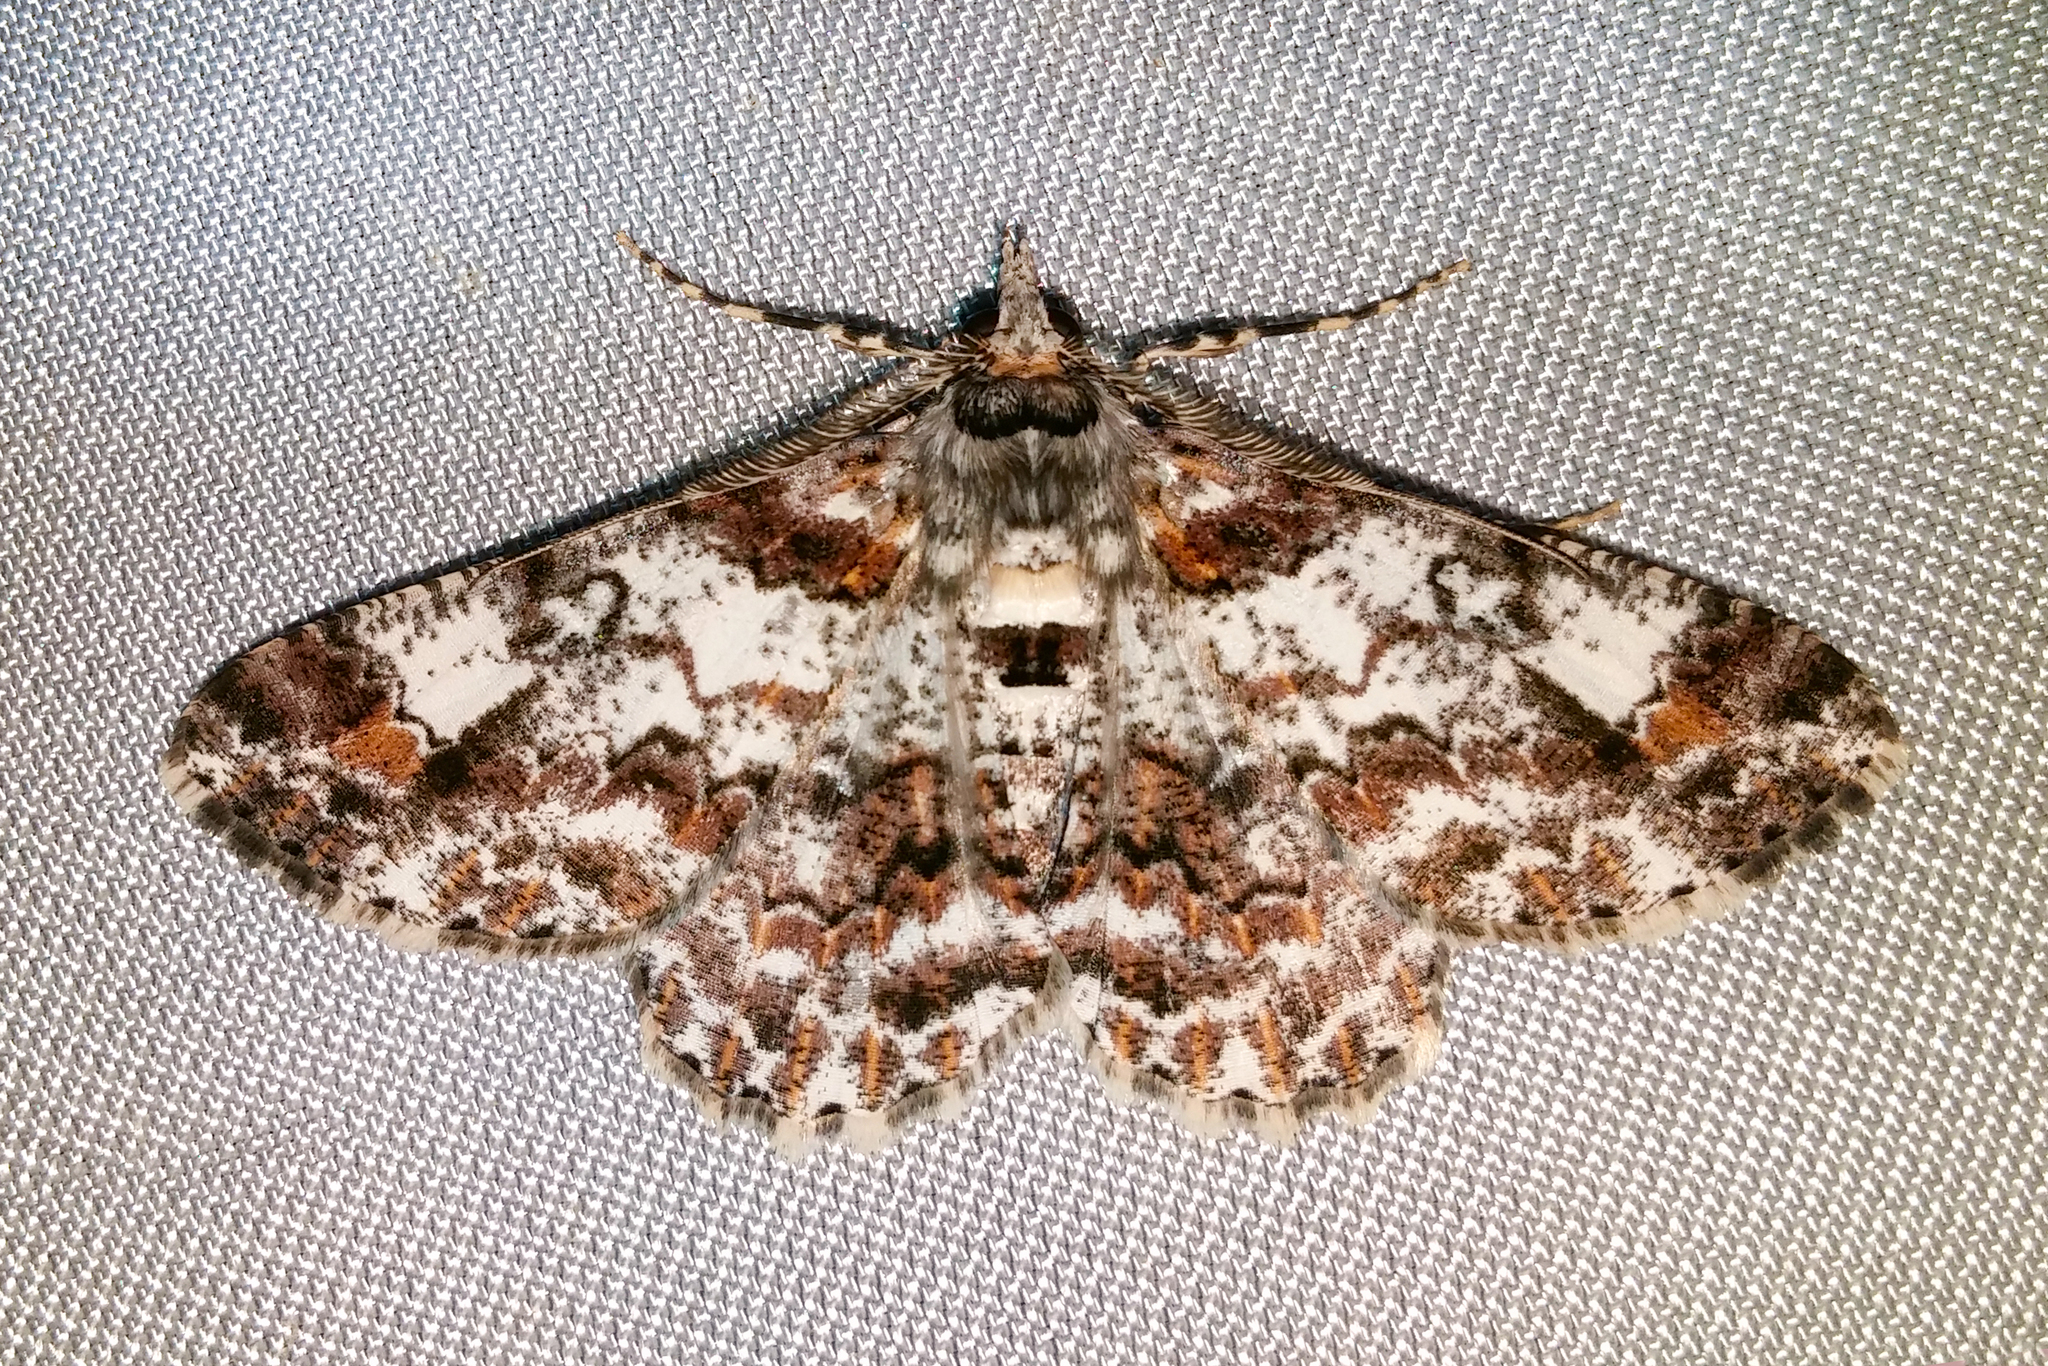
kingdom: Animalia
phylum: Arthropoda
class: Insecta
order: Lepidoptera
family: Geometridae
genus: Cleora
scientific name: Cleora illustraria
